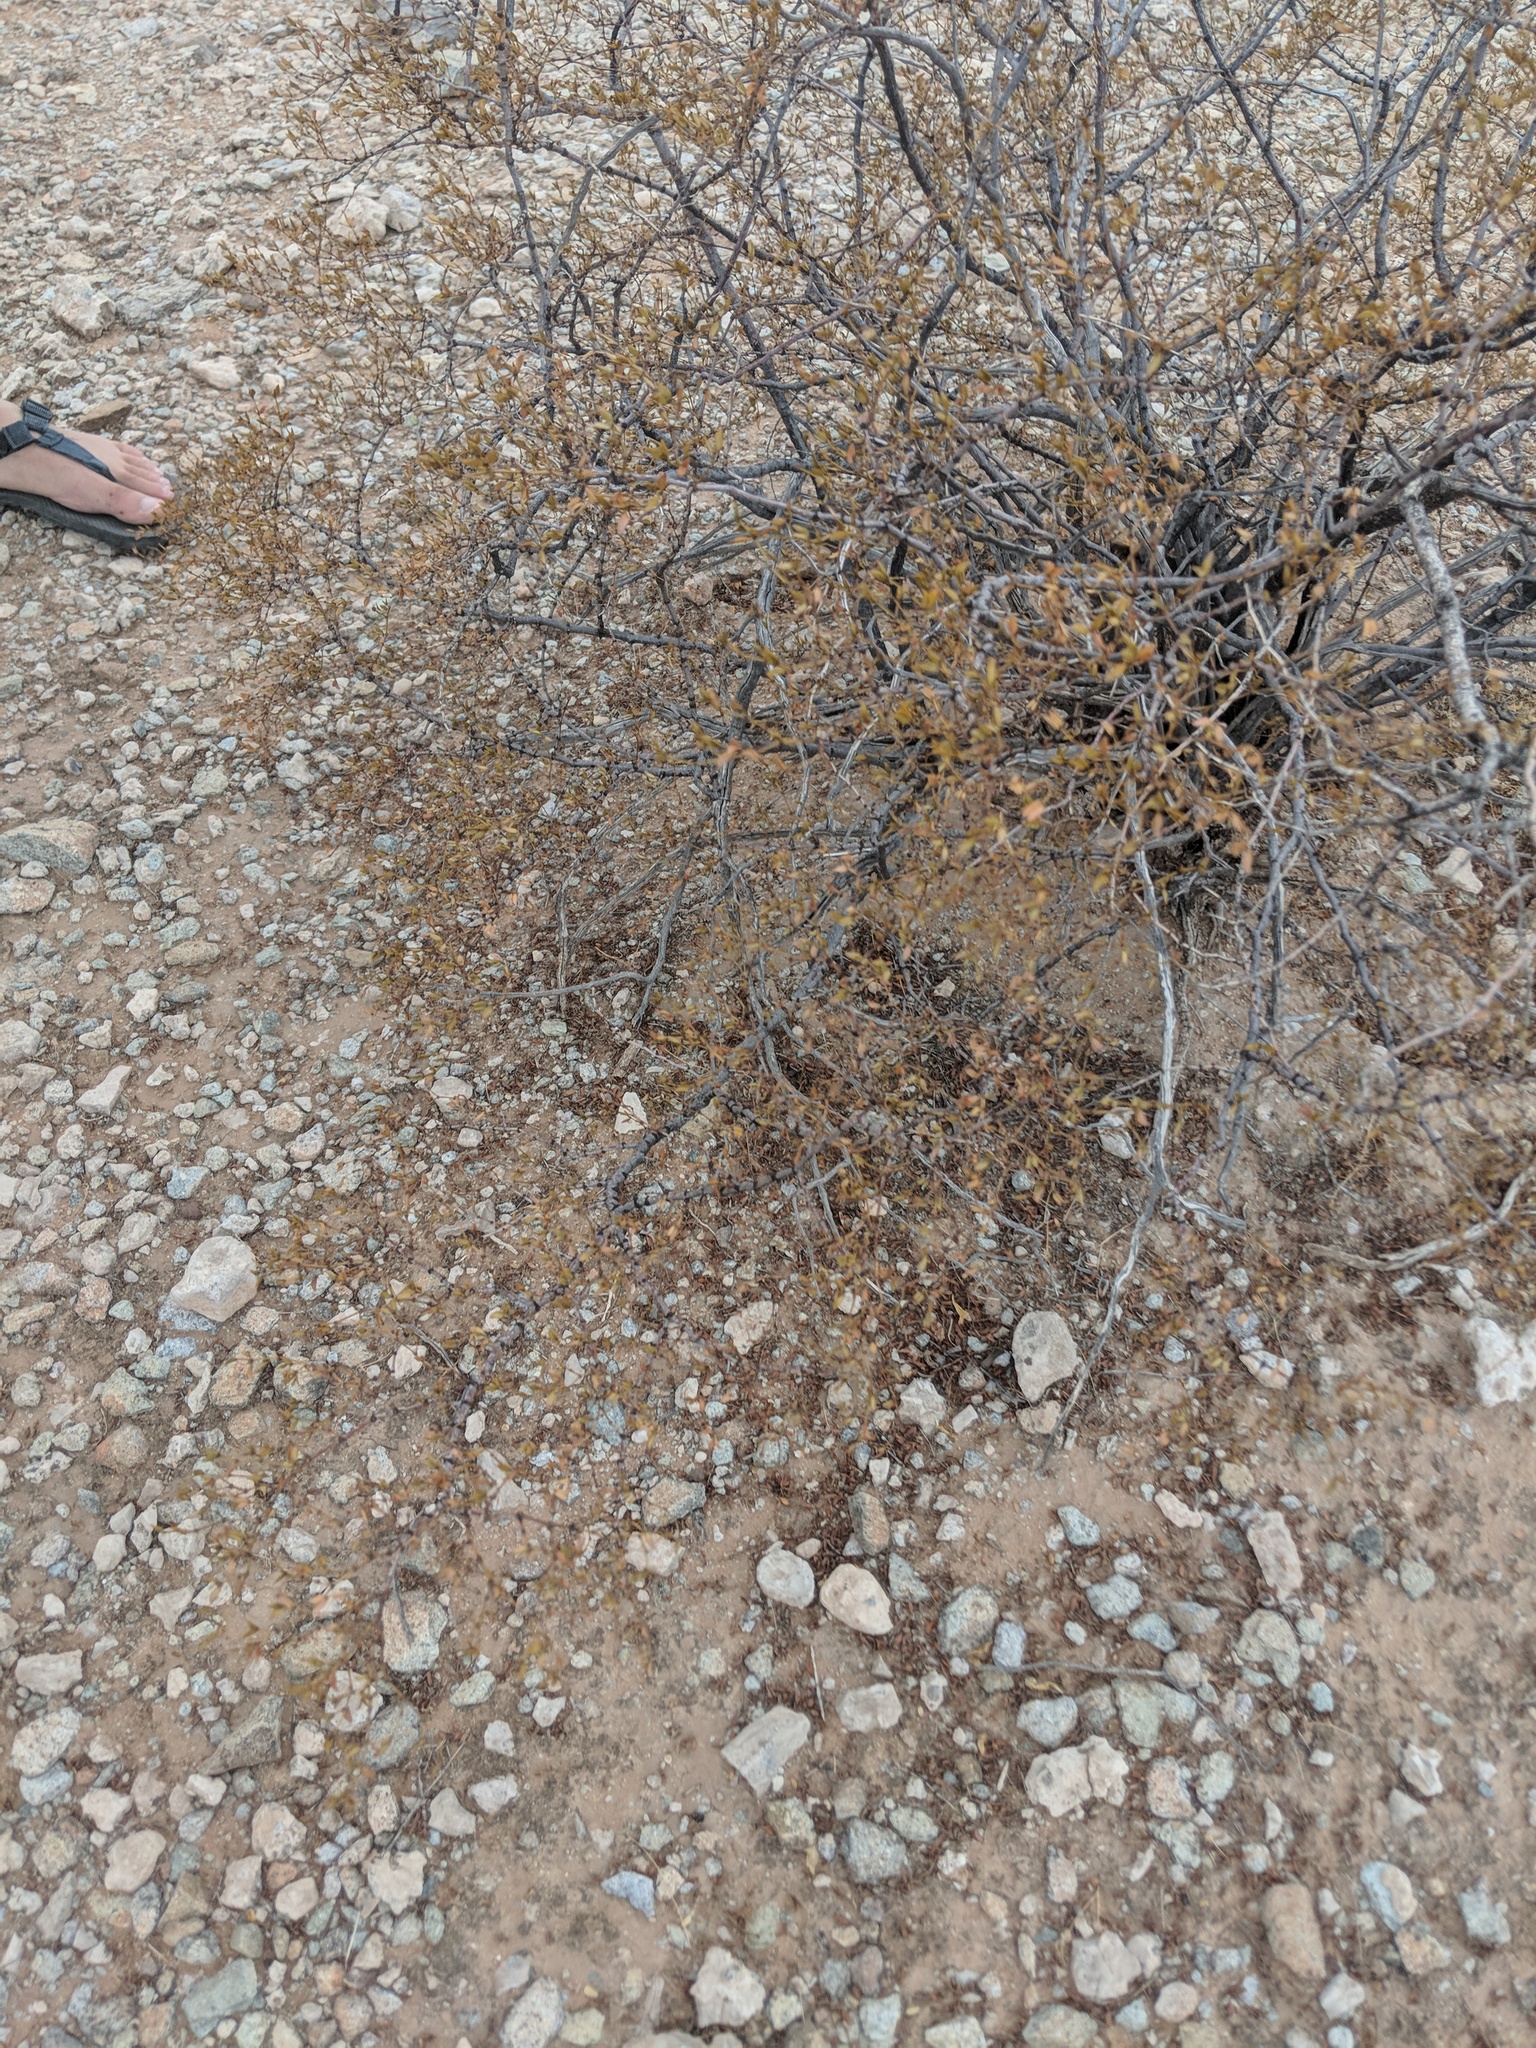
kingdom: Plantae
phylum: Tracheophyta
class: Magnoliopsida
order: Zygophyllales
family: Zygophyllaceae
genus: Larrea
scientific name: Larrea tridentata
